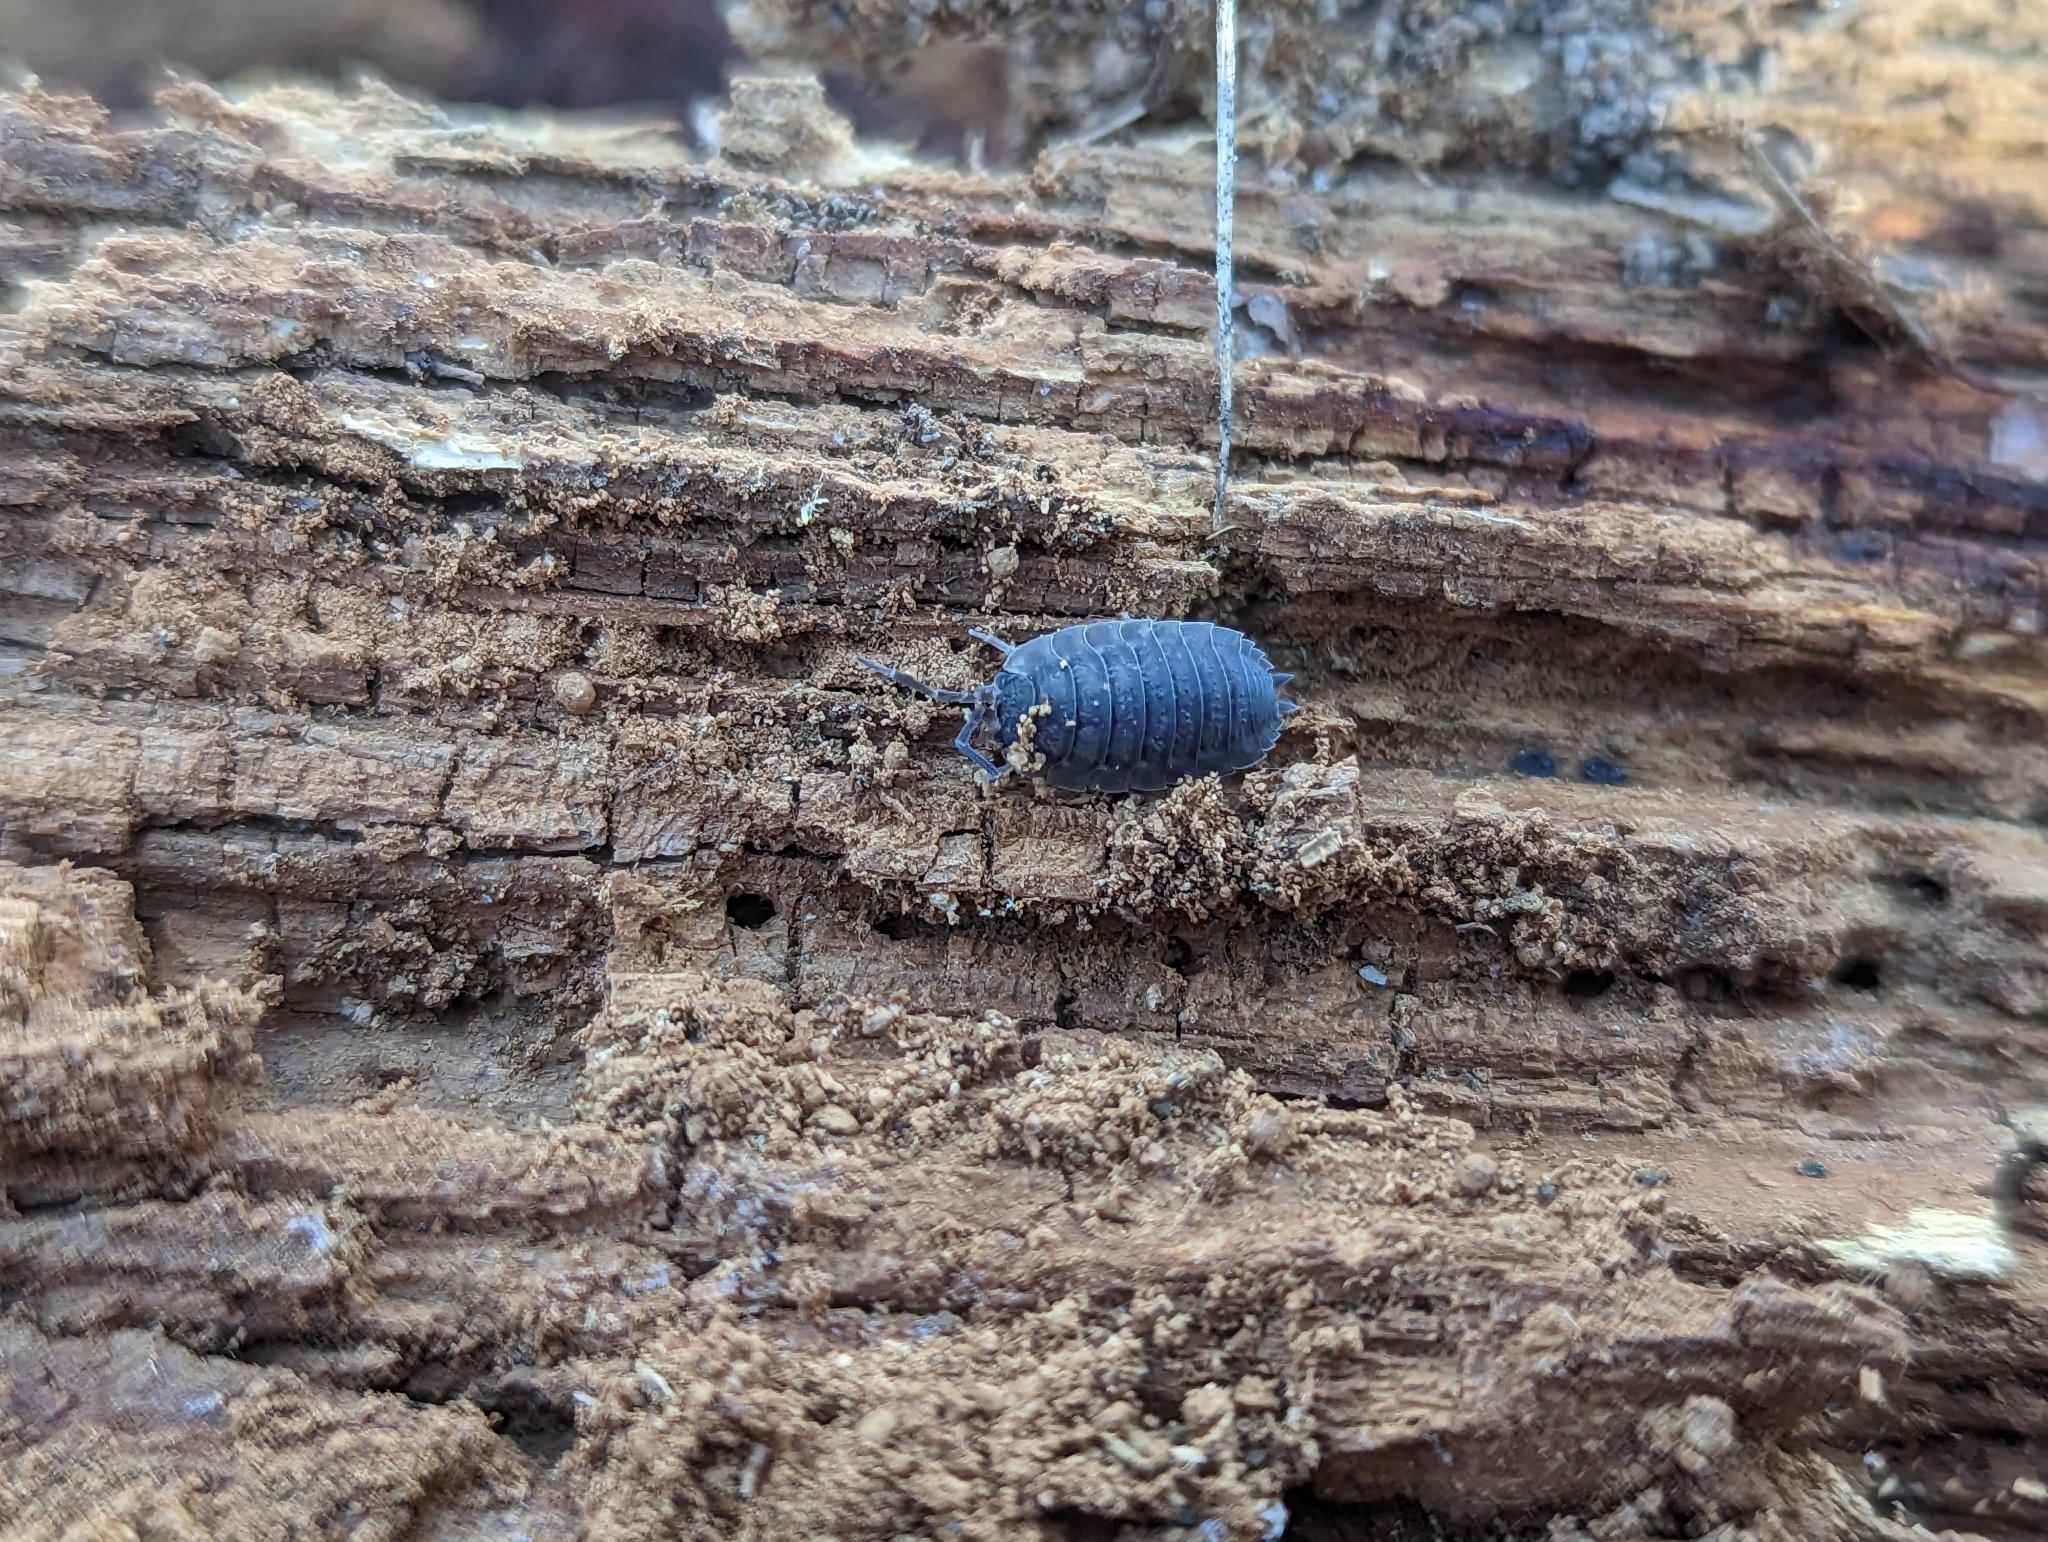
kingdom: Animalia
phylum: Arthropoda
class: Malacostraca
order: Isopoda
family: Porcellionidae
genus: Porcellio
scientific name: Porcellio scaber
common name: Common rough woodlouse
